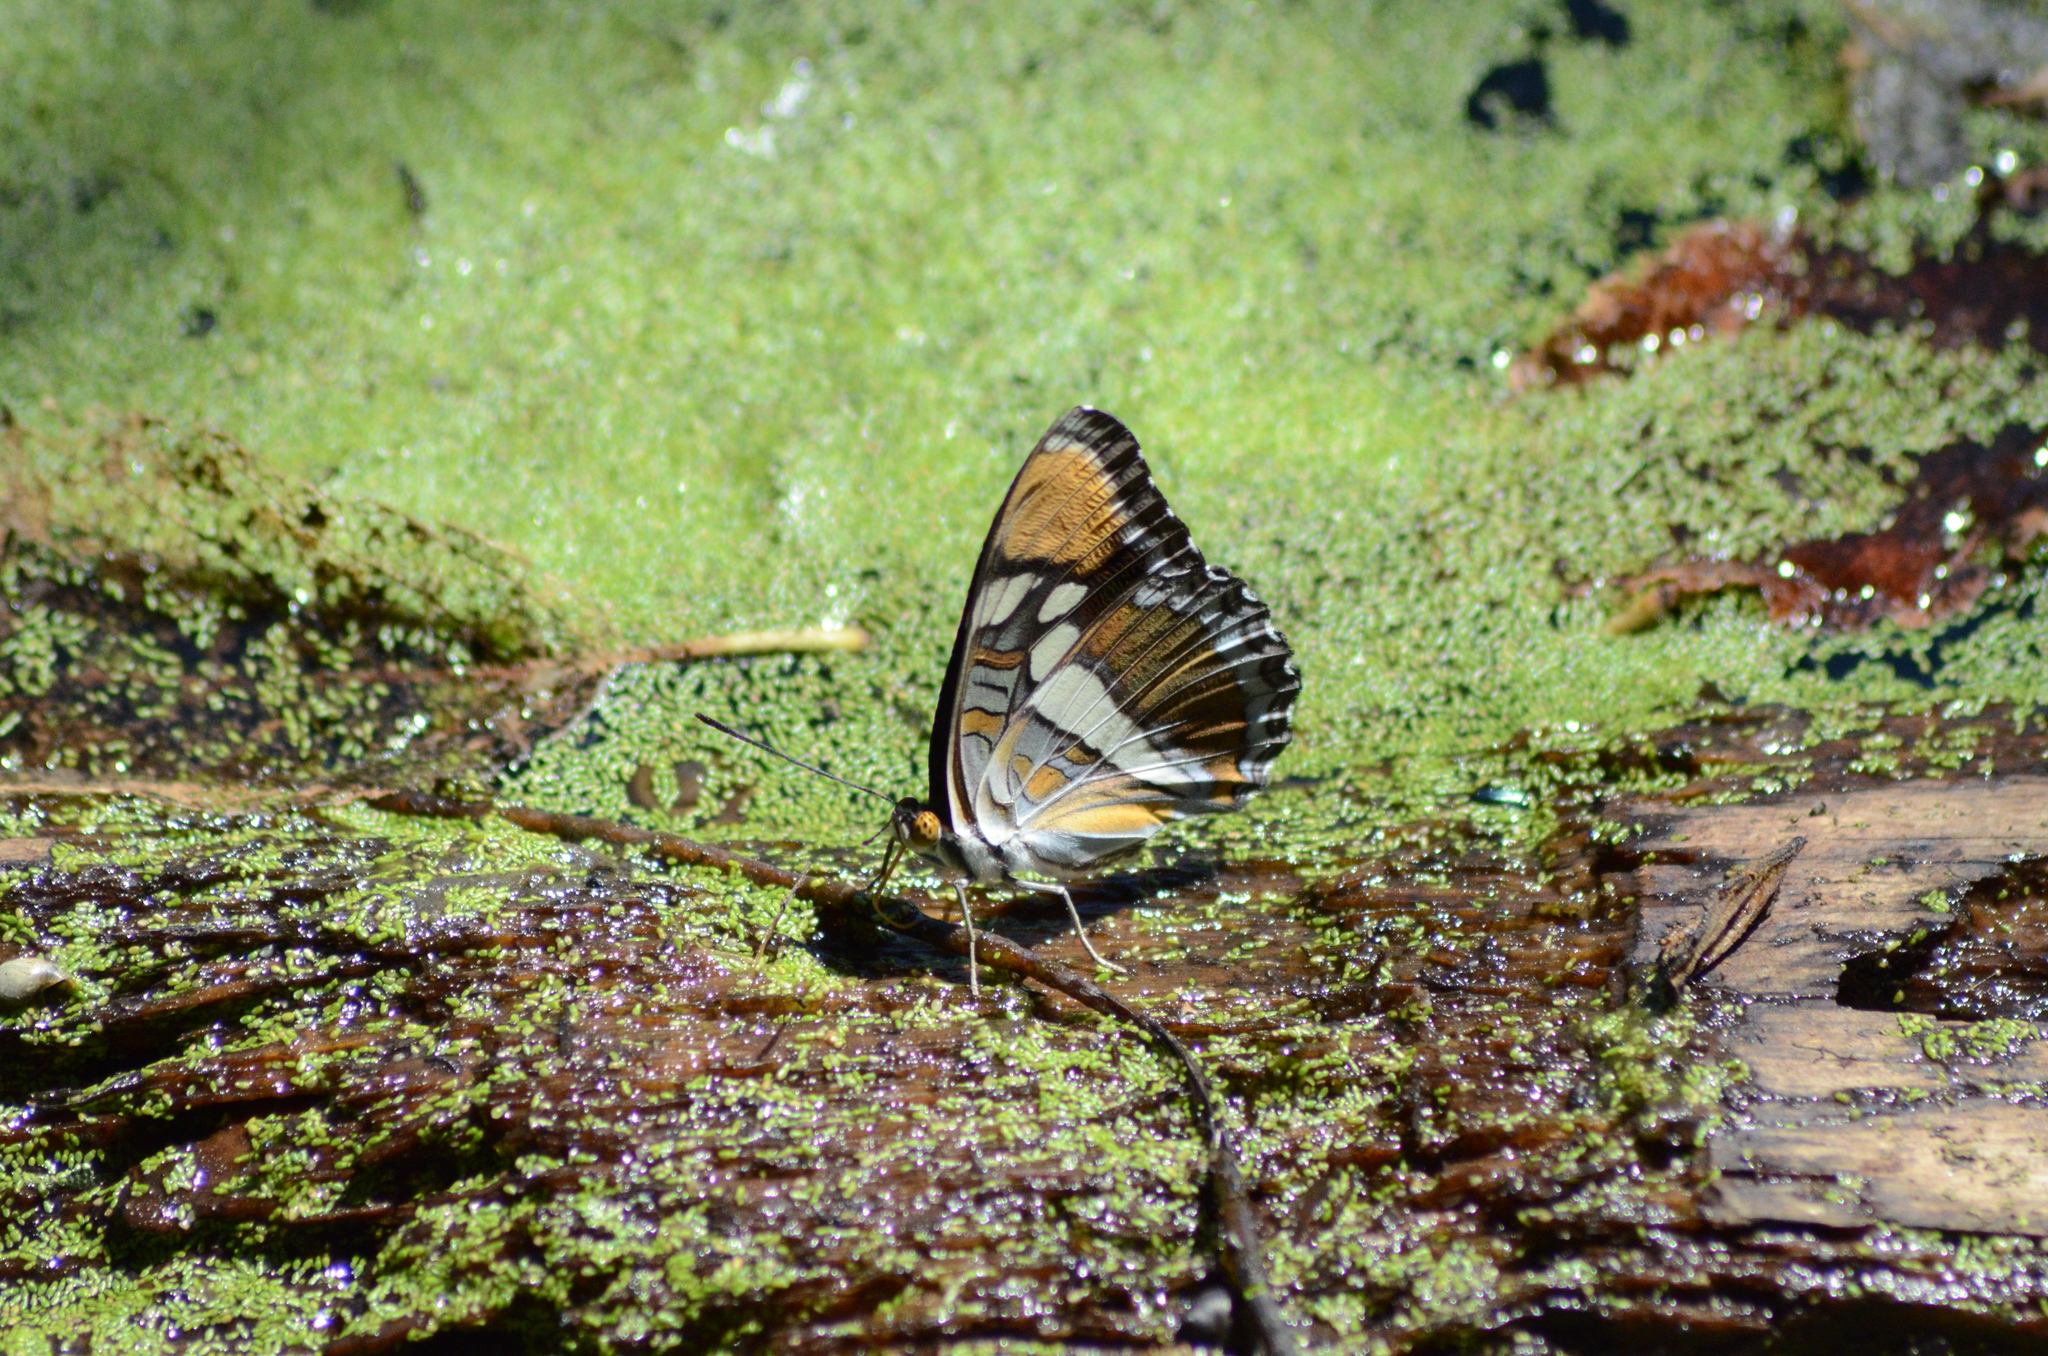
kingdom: Animalia
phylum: Arthropoda
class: Insecta
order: Lepidoptera
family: Nymphalidae
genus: Limenitis
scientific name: Limenitis bredowii
